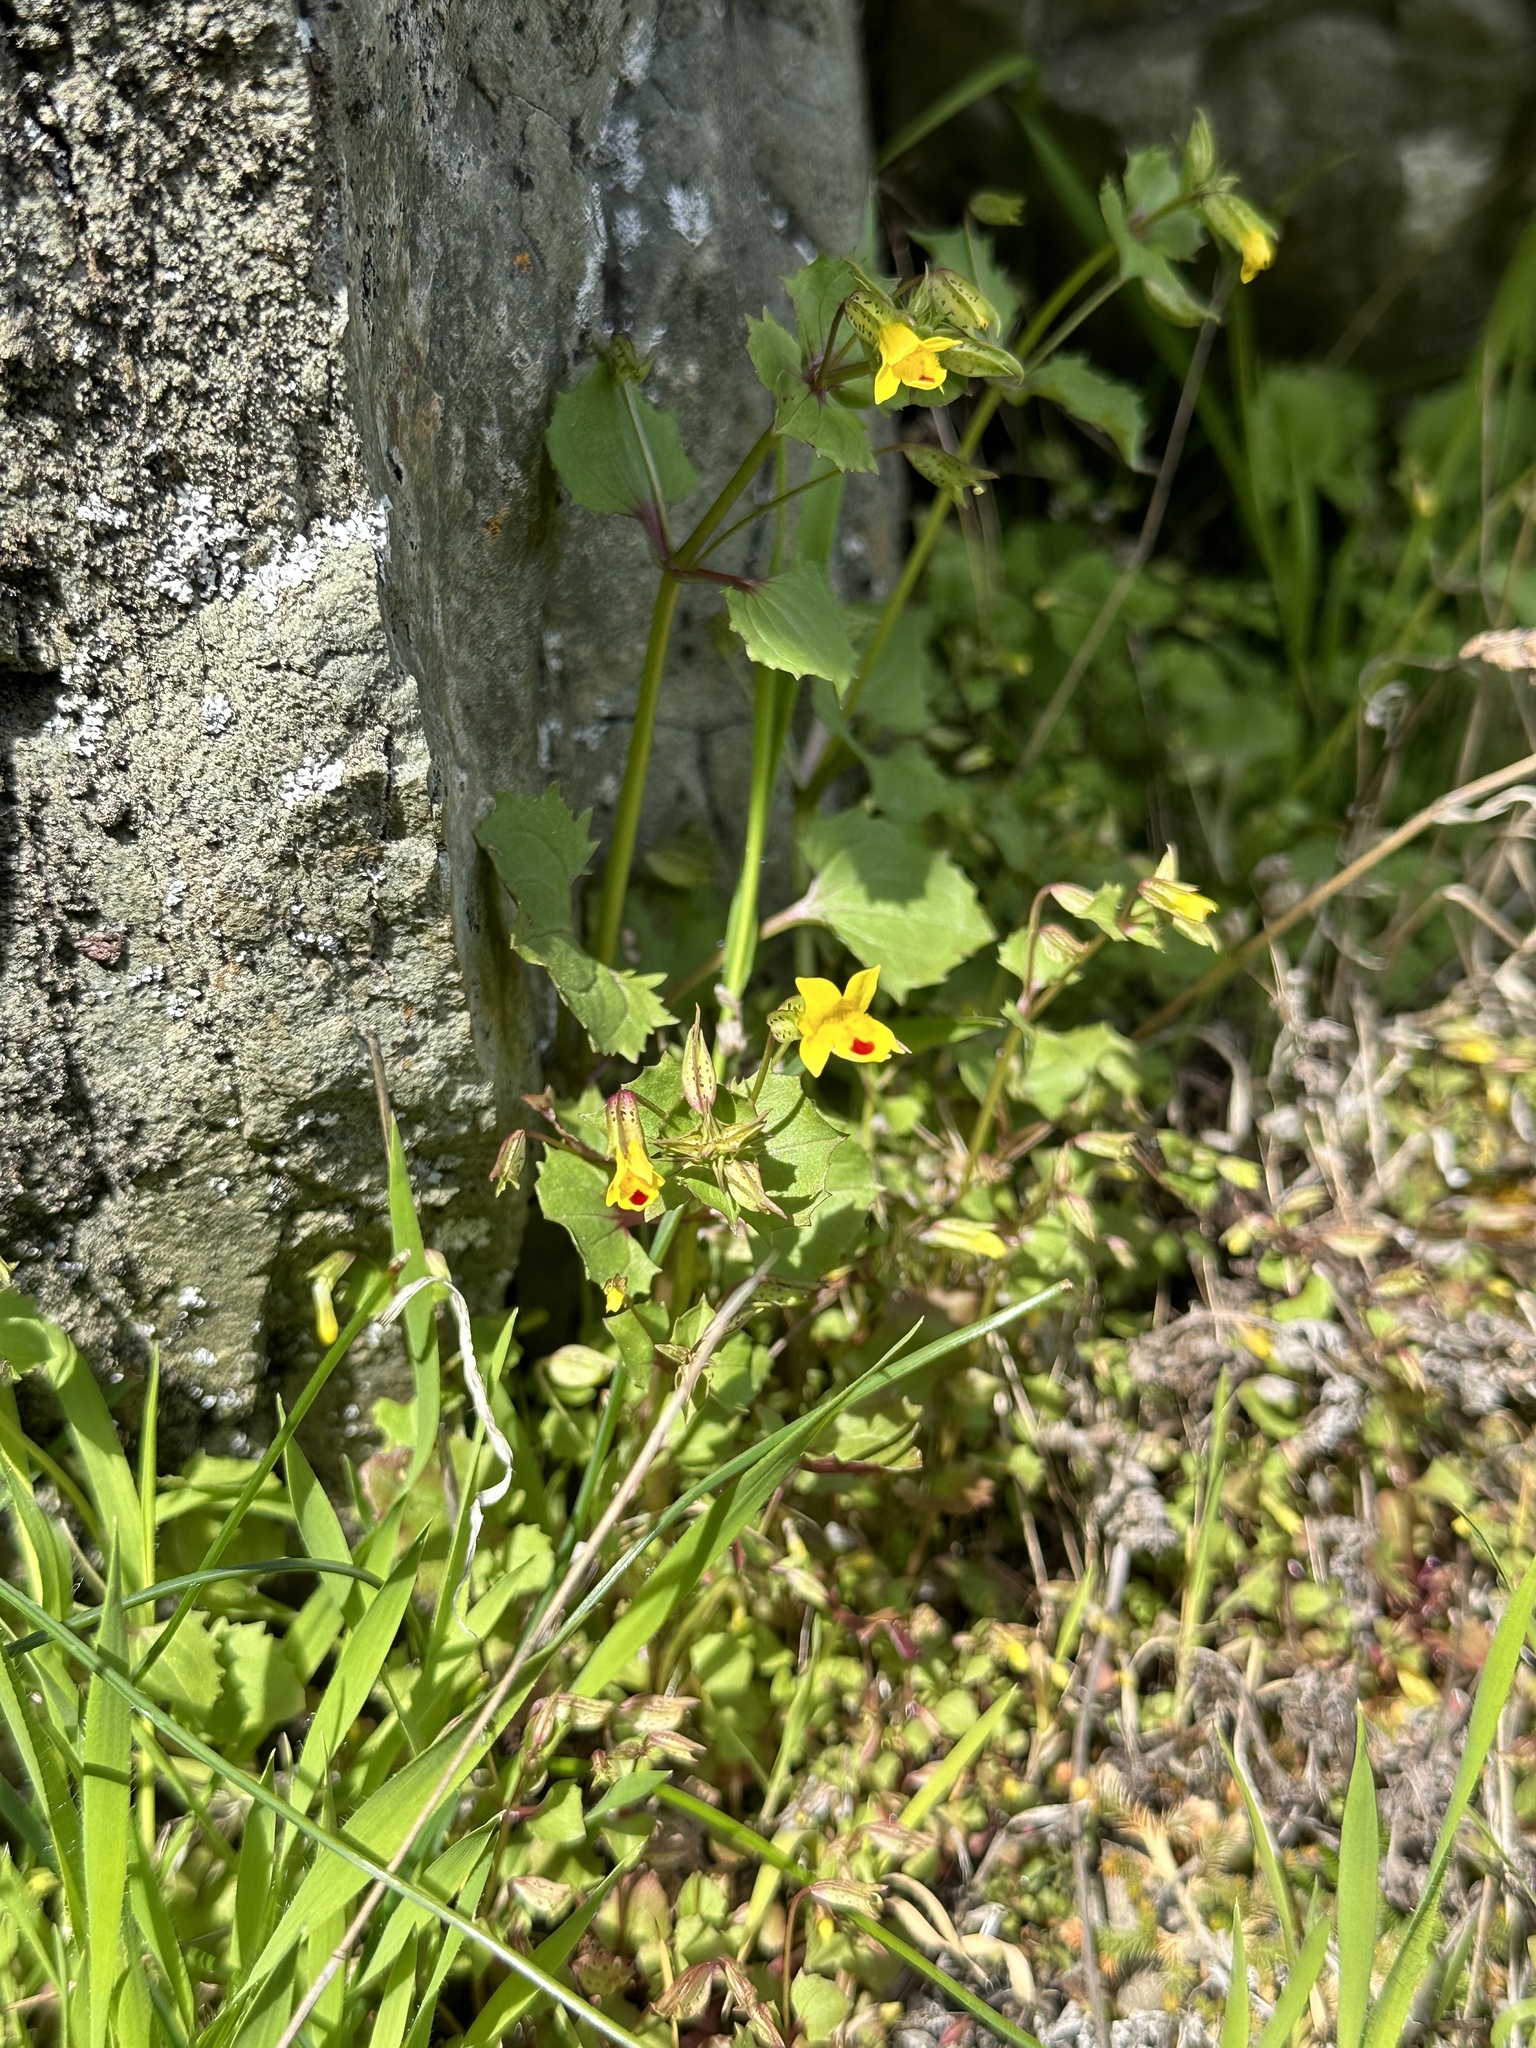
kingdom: Plantae
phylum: Tracheophyta
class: Magnoliopsida
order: Lamiales
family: Phrymaceae
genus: Erythranthe
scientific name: Erythranthe nasuta
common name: Sooke monkeyflower
